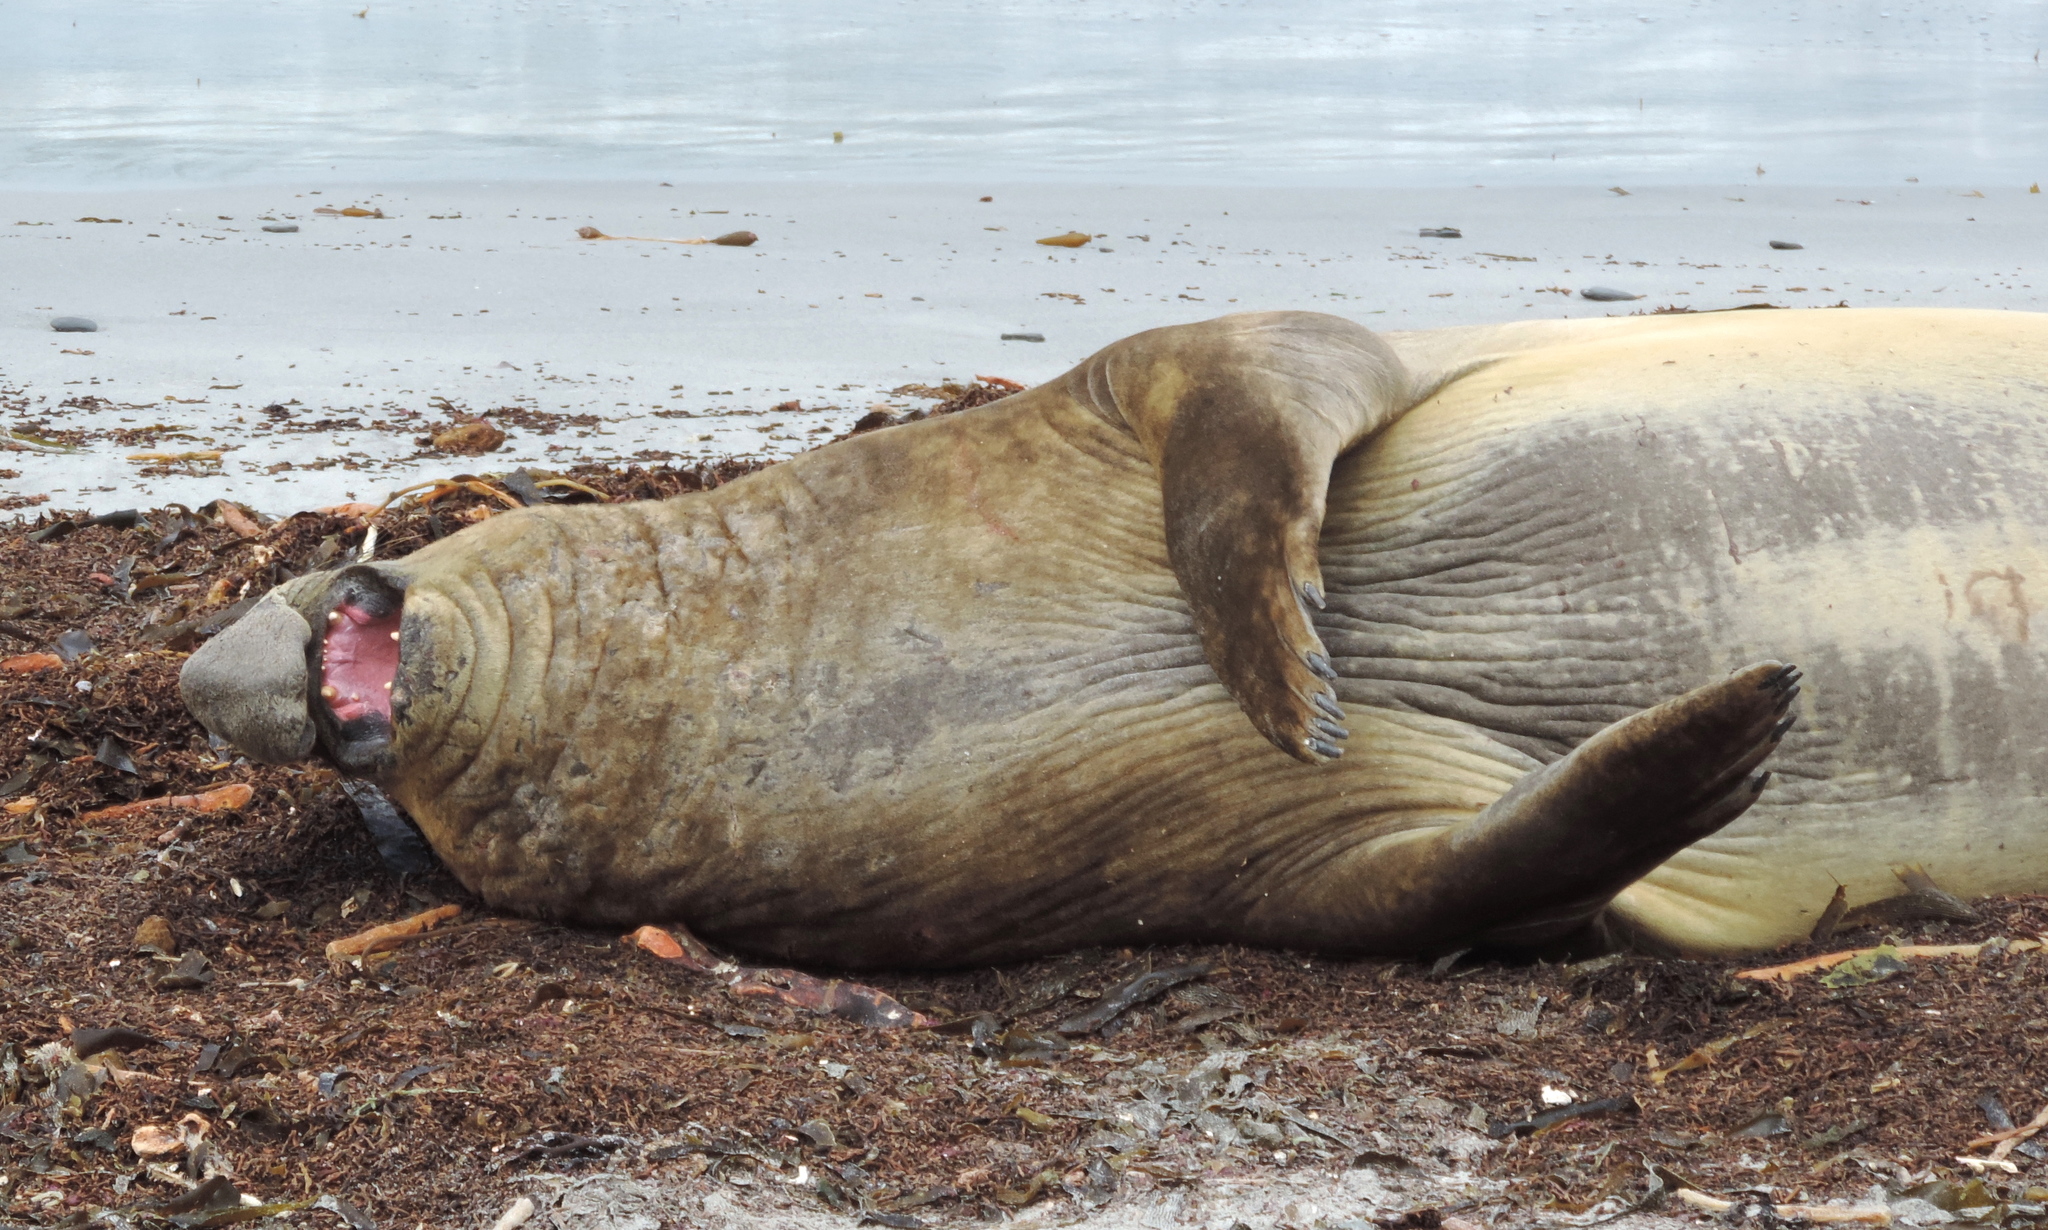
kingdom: Animalia
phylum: Chordata
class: Mammalia
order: Carnivora
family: Phocidae
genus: Mirounga
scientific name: Mirounga leonina
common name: Southern elephant seal
